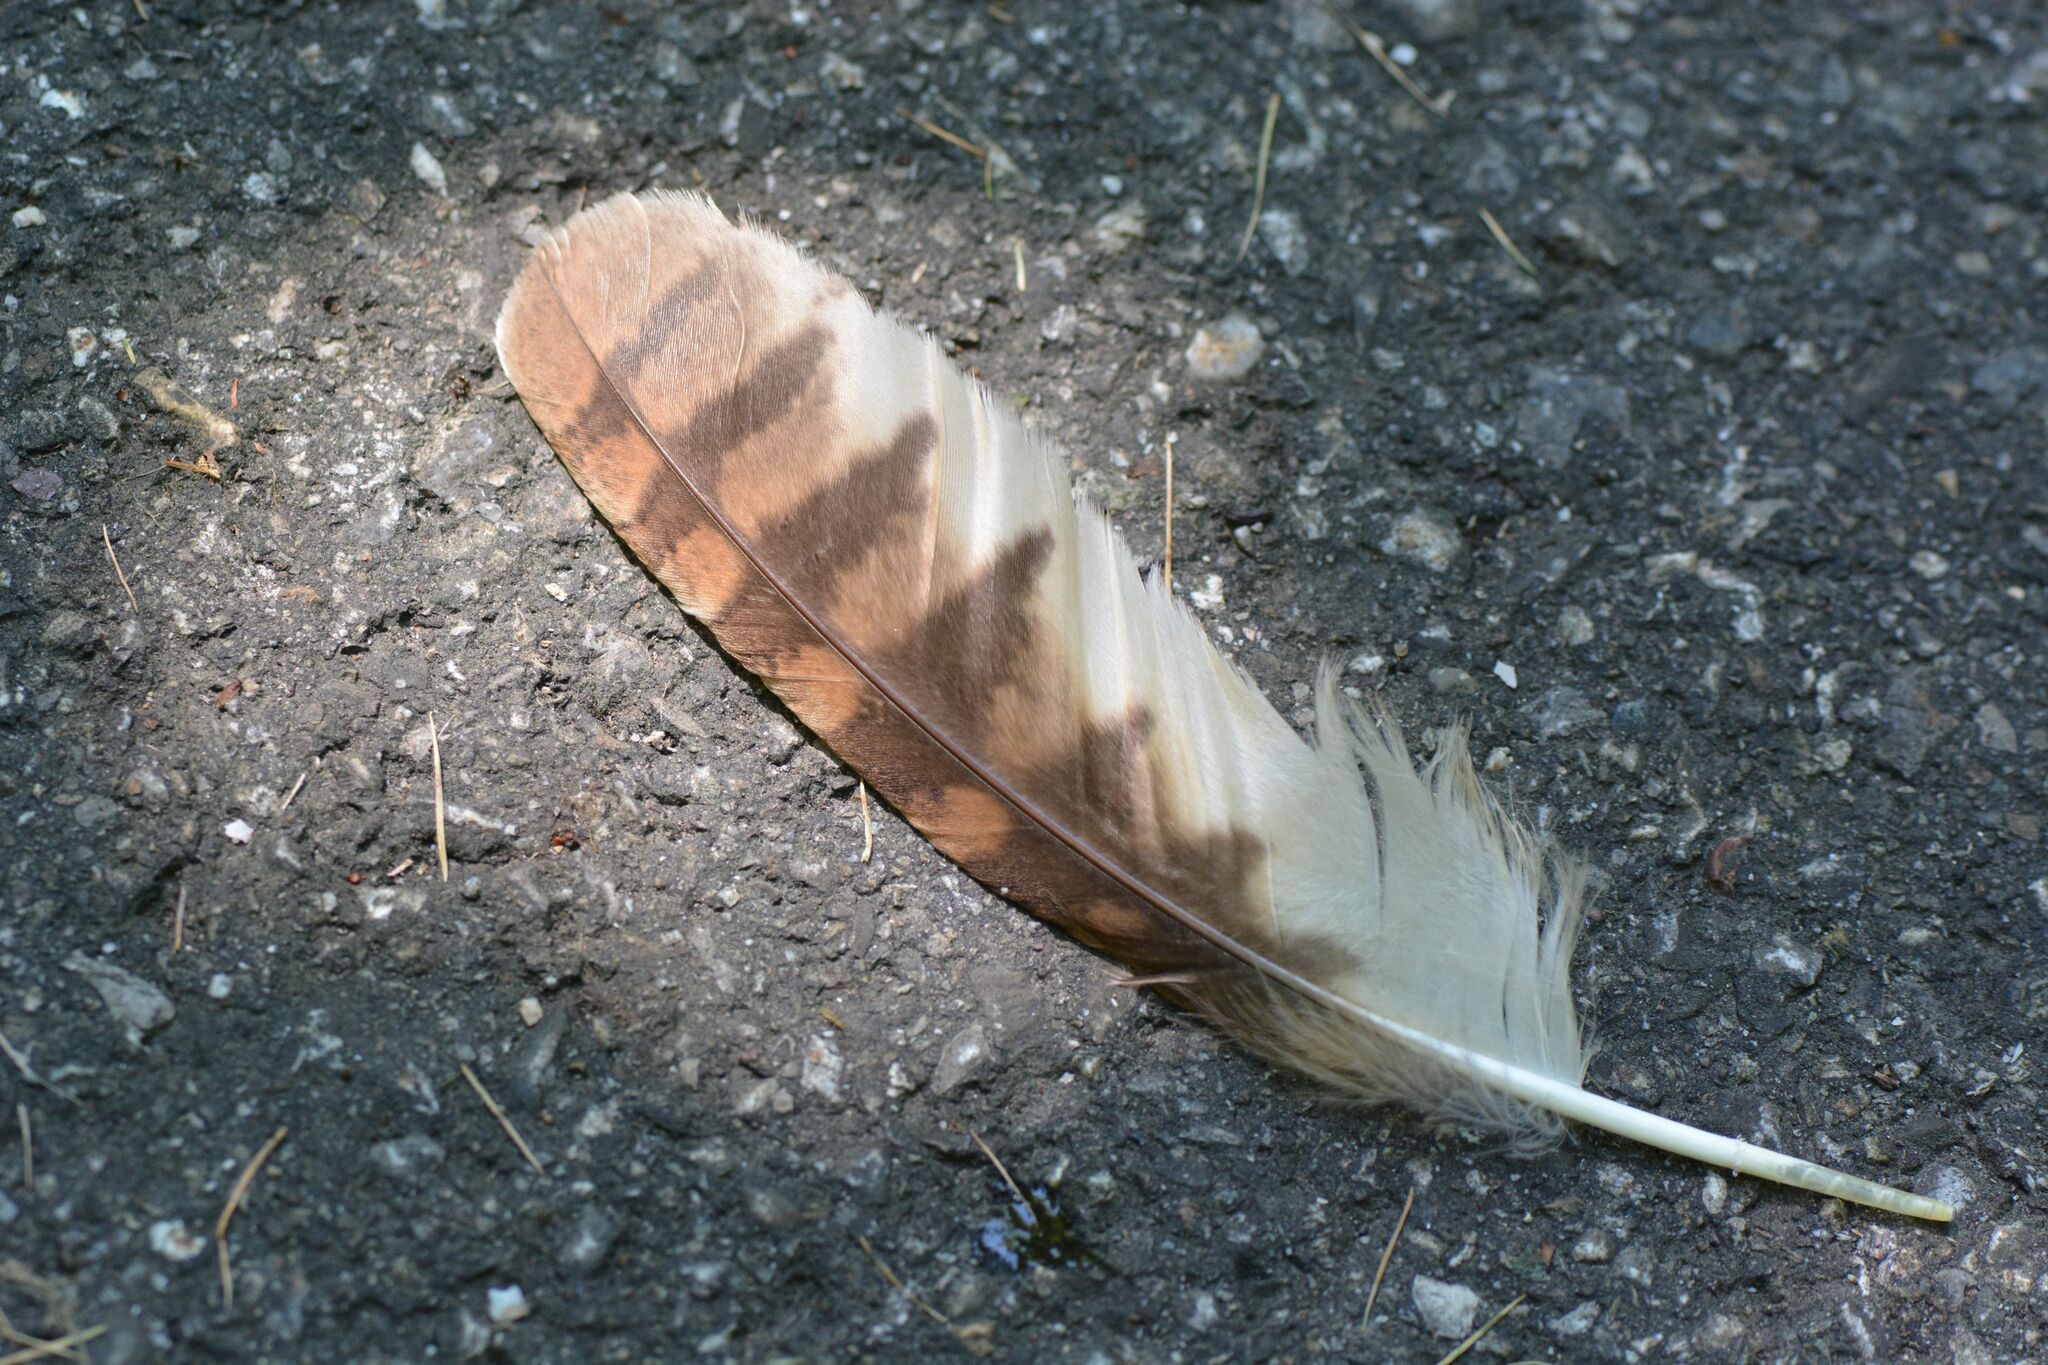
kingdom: Animalia
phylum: Chordata
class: Aves
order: Strigiformes
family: Strigidae
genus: Strix
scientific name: Strix aluco
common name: Tawny owl
